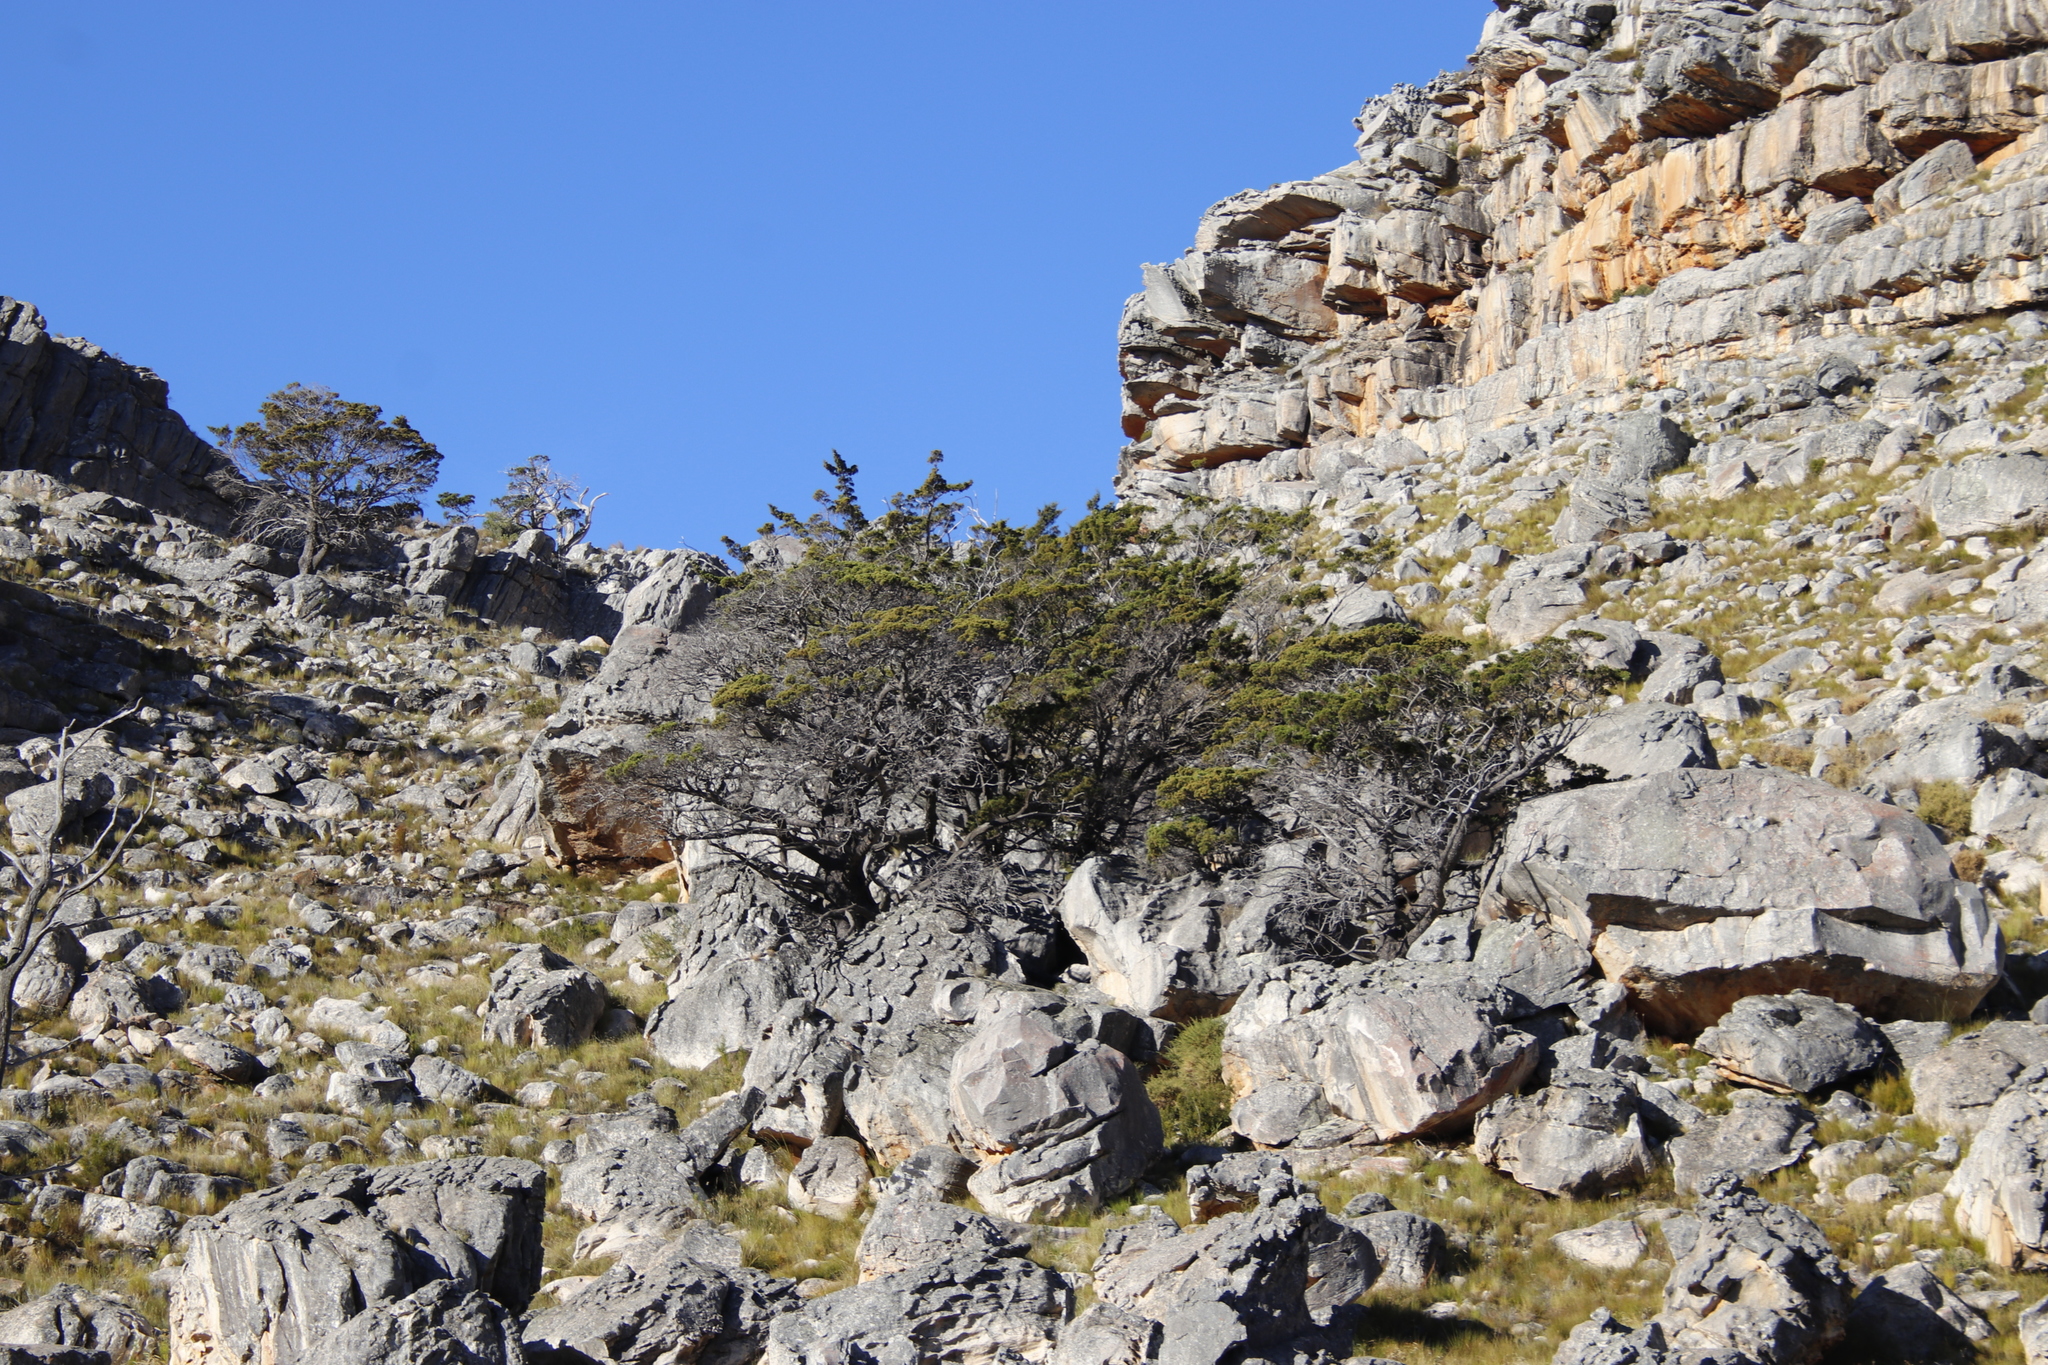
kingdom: Plantae
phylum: Tracheophyta
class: Pinopsida
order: Pinales
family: Cupressaceae
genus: Widdringtonia
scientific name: Widdringtonia nodiflora
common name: Cape cypress
